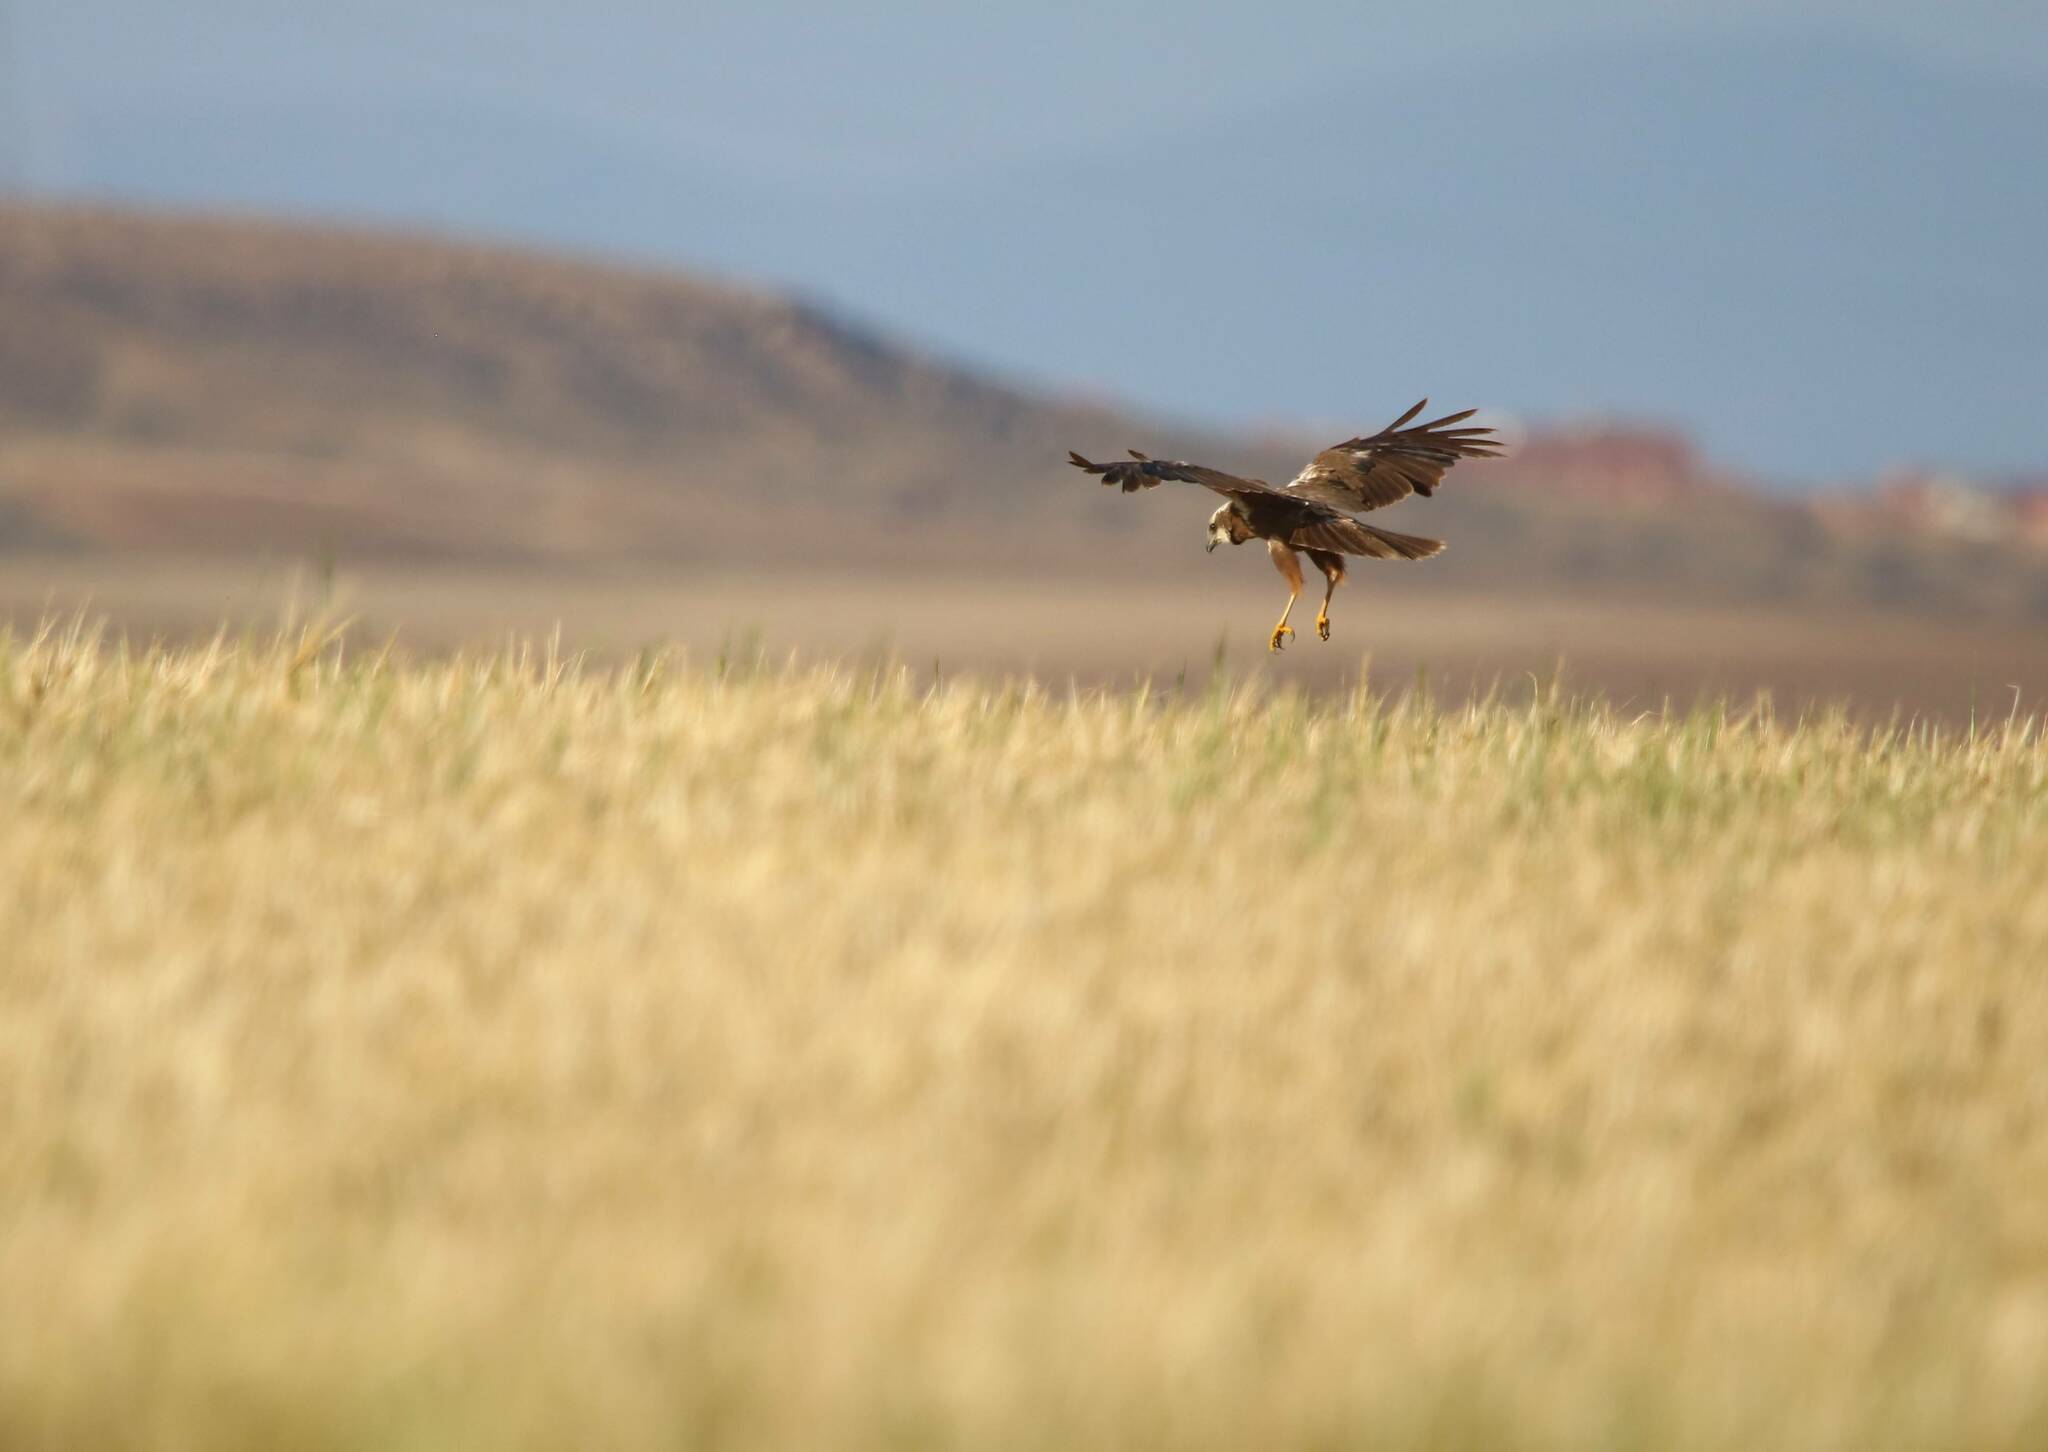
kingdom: Animalia
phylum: Chordata
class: Aves
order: Accipitriformes
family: Accipitridae
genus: Circus
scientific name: Circus aeruginosus
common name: Western marsh harrier
